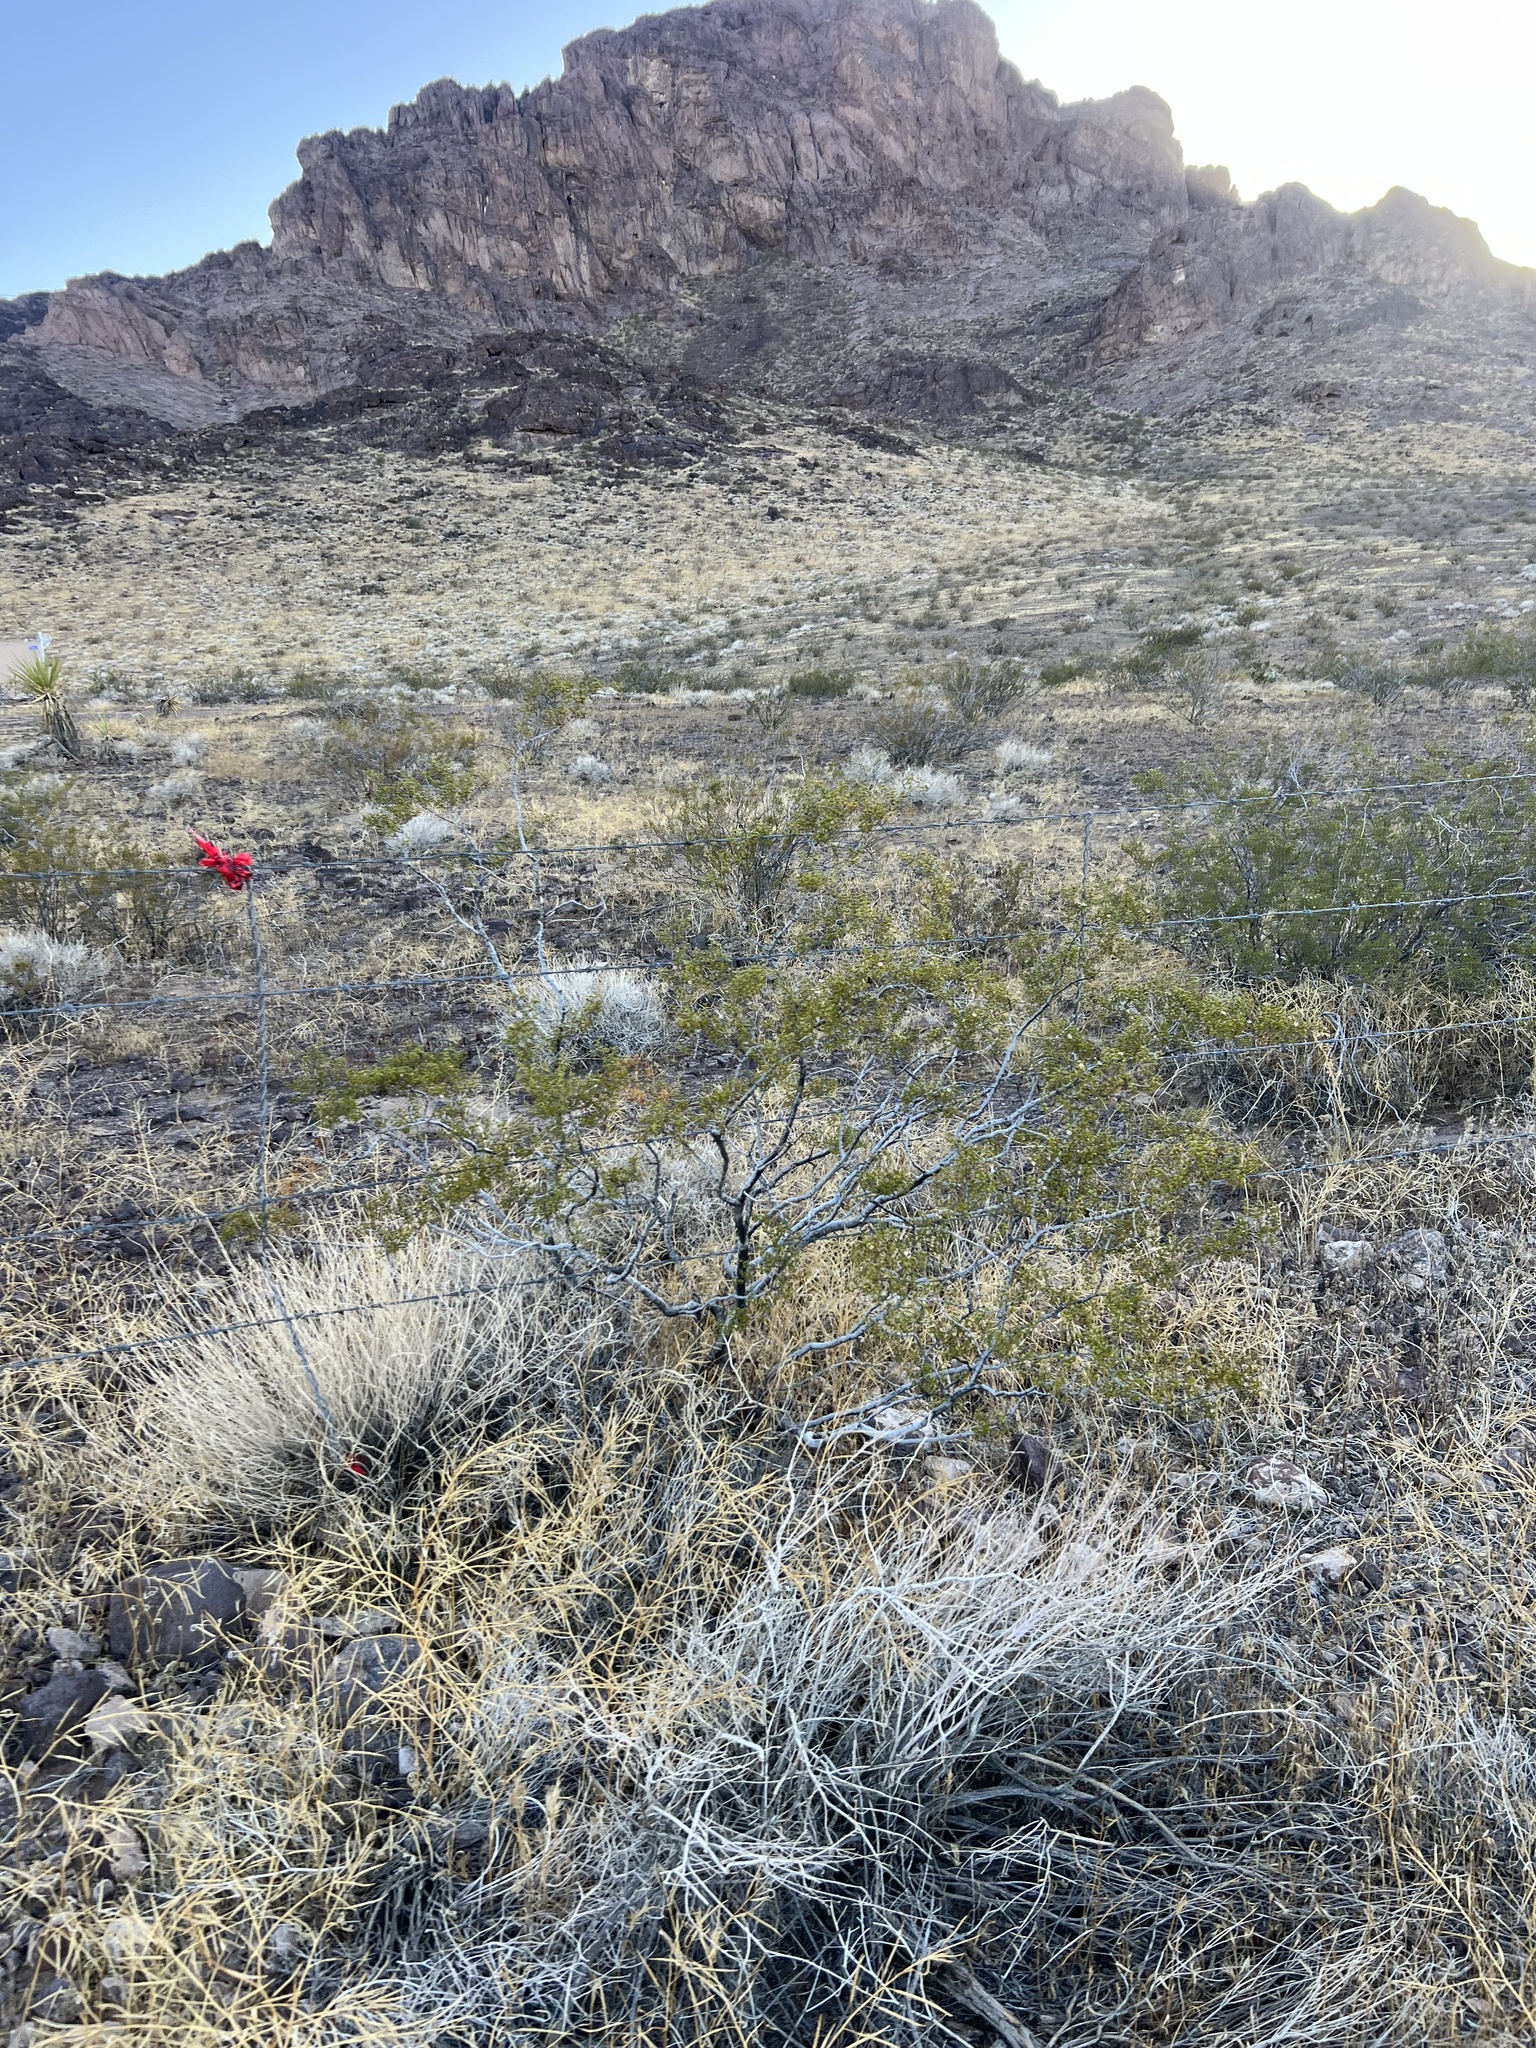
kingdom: Plantae
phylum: Tracheophyta
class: Magnoliopsida
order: Zygophyllales
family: Zygophyllaceae
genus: Larrea
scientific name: Larrea tridentata
